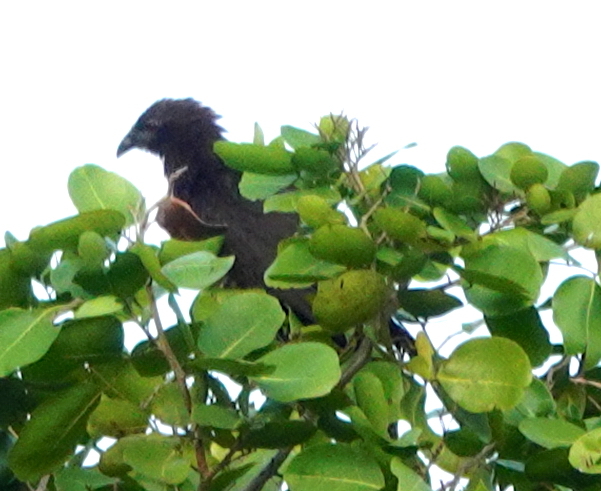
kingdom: Animalia
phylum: Chordata
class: Aves
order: Cuculiformes
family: Cuculidae
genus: Centropus
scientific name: Centropus phasianinus
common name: Pheasant coucal
